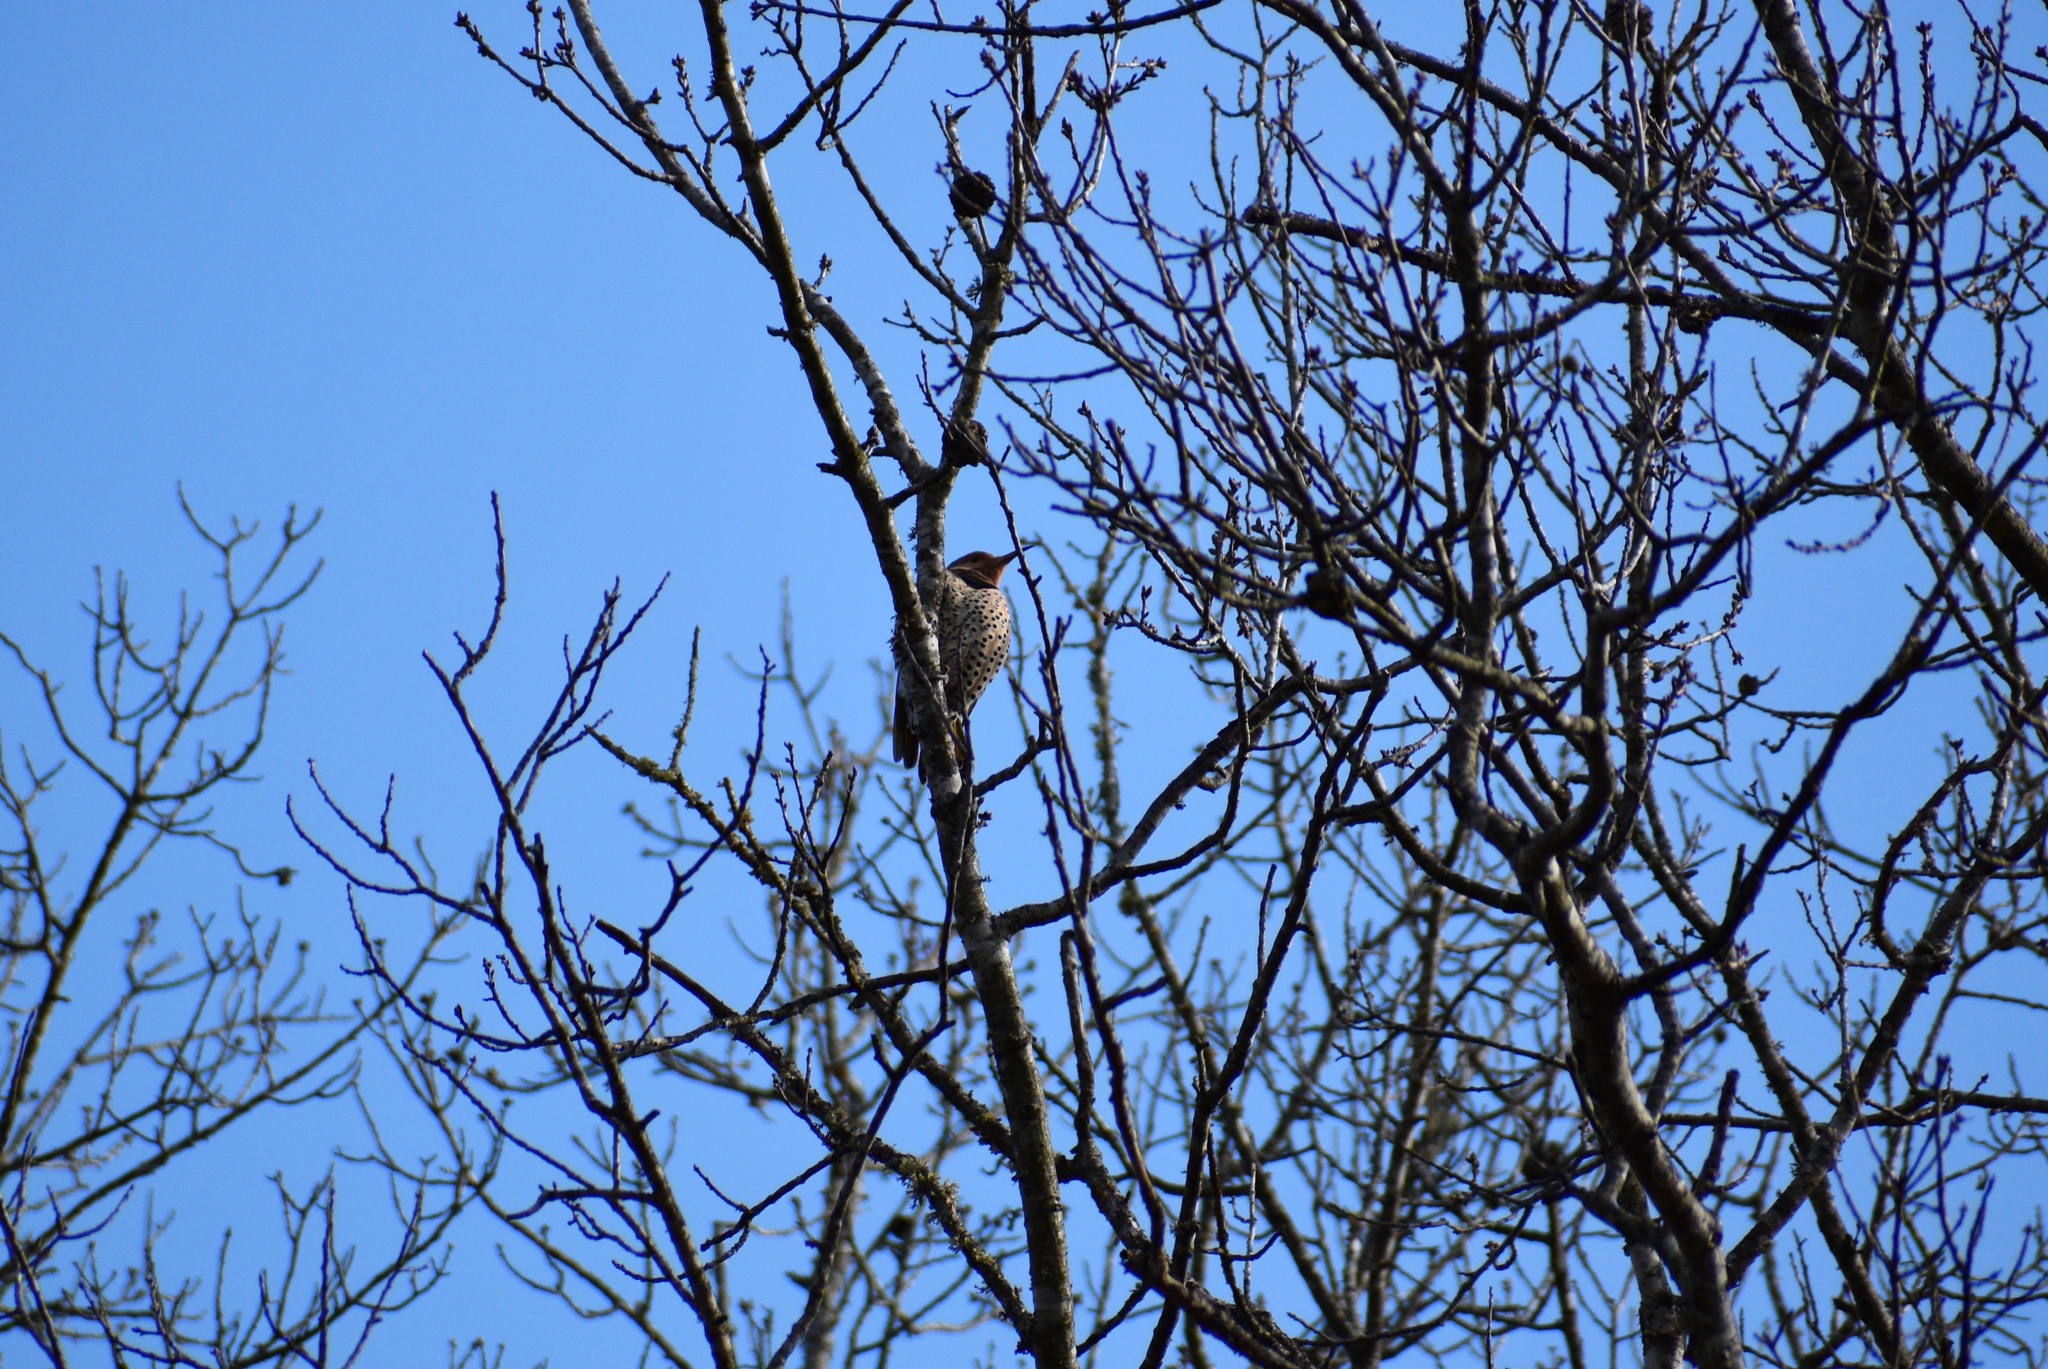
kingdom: Animalia
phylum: Chordata
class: Aves
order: Piciformes
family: Picidae
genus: Colaptes
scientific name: Colaptes auratus
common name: Northern flicker
